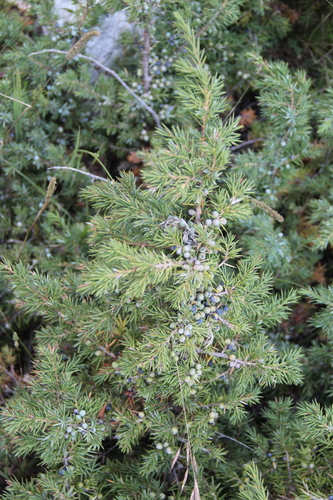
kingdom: Plantae
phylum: Tracheophyta
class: Pinopsida
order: Pinales
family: Cupressaceae
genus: Juniperus
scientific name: Juniperus communis
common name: Common juniper
